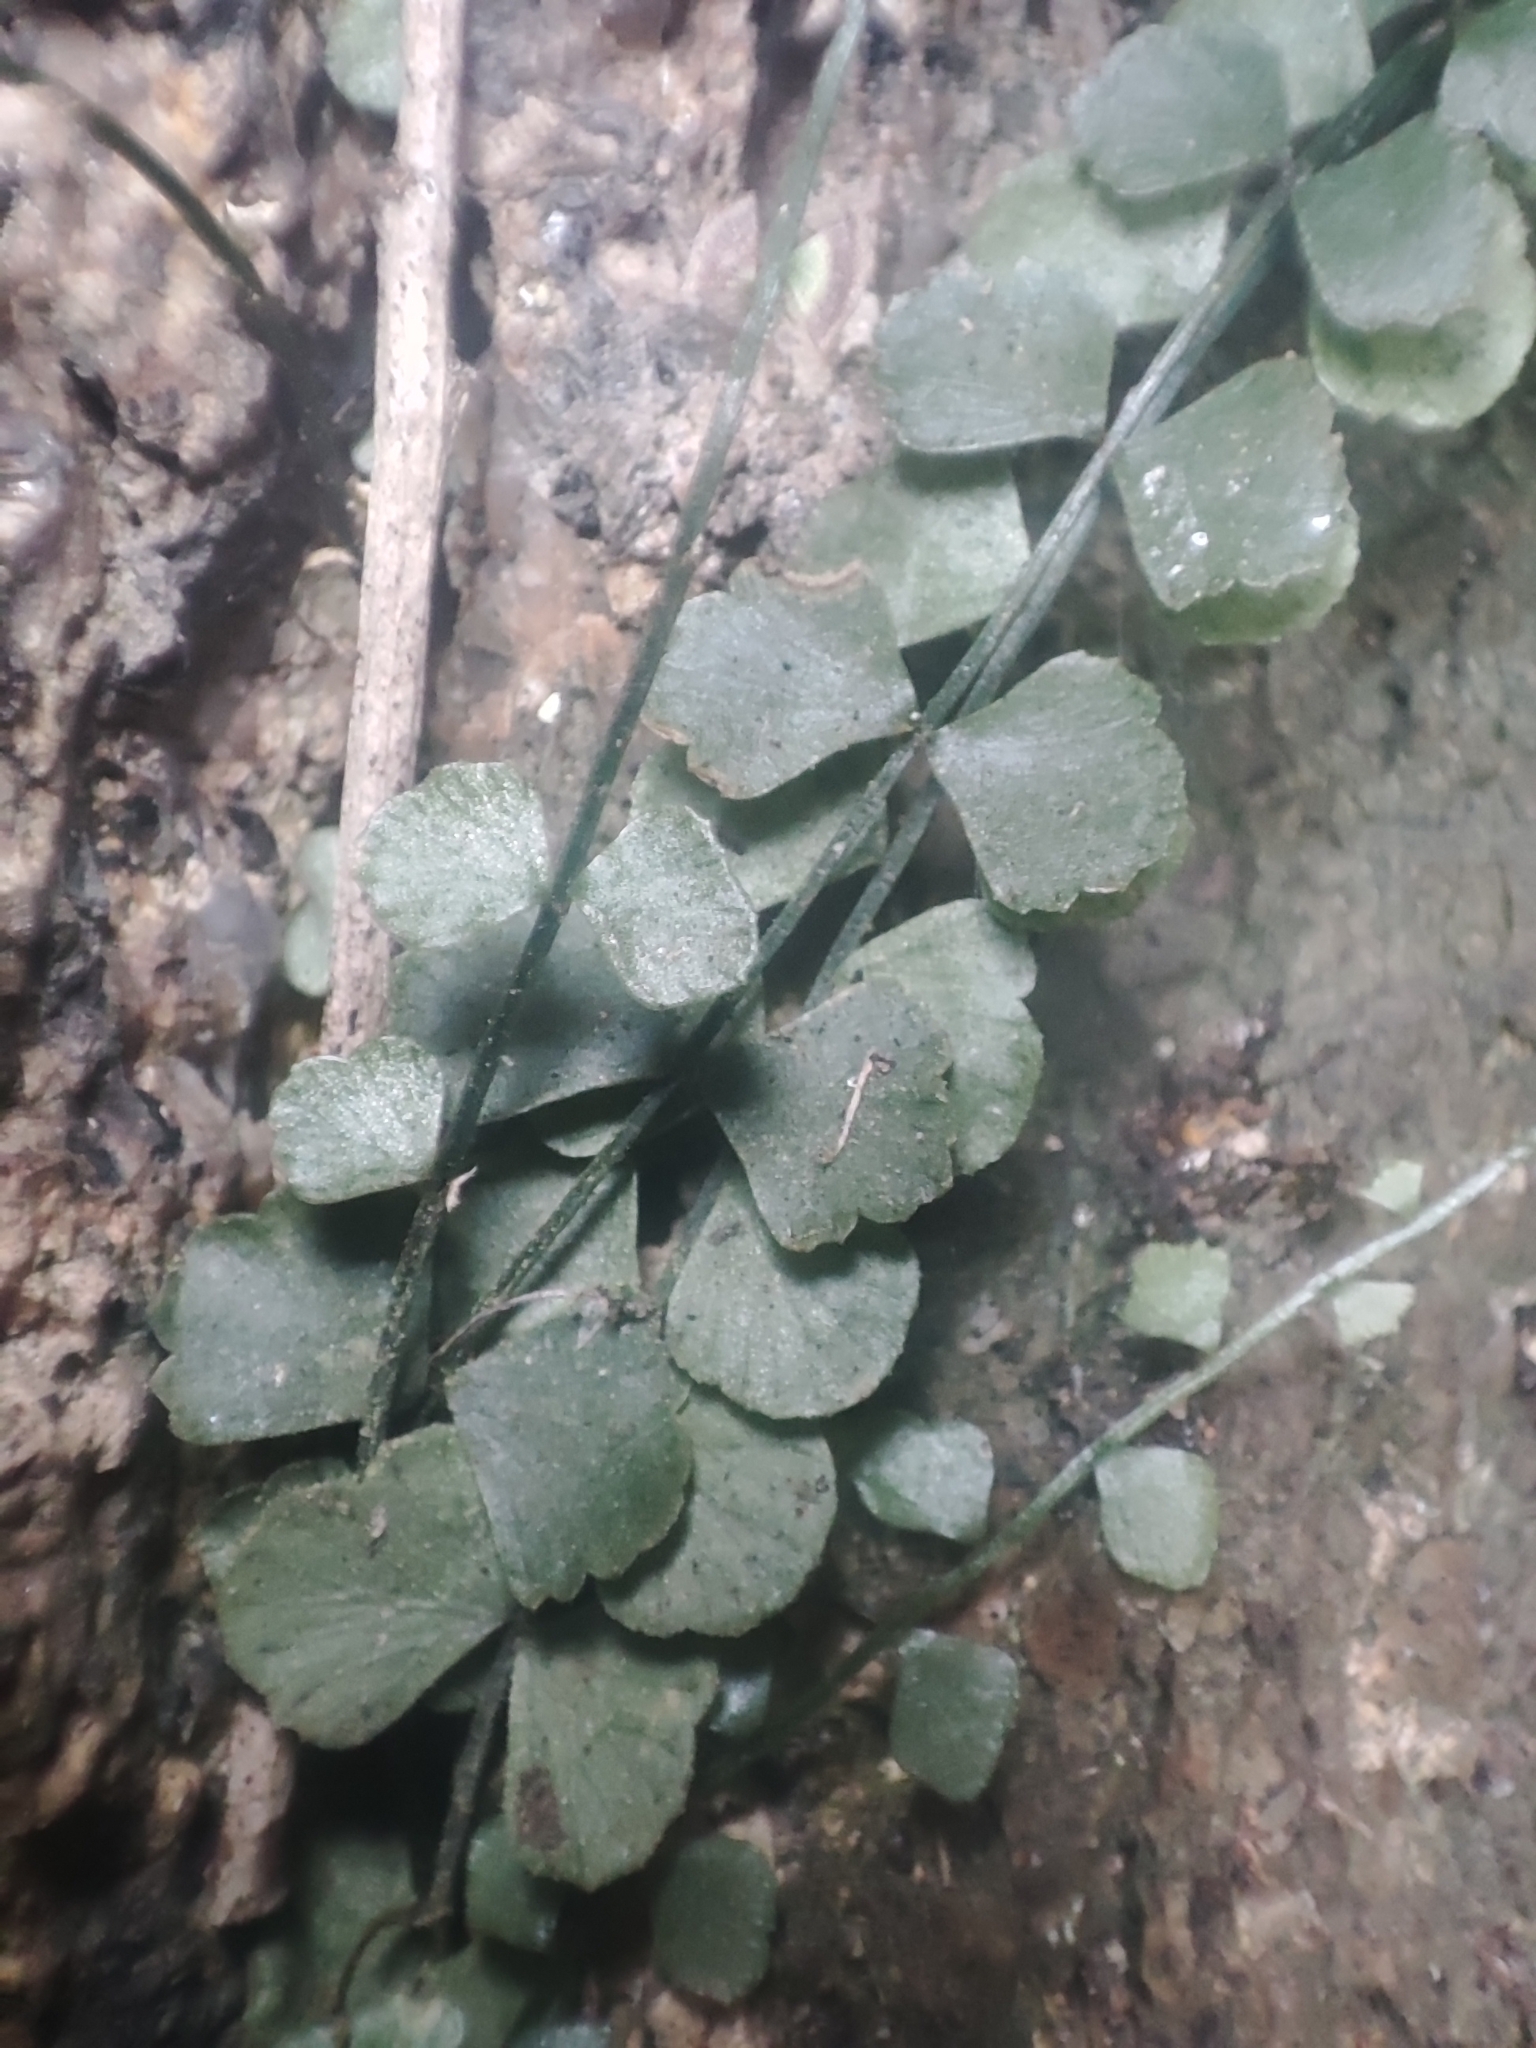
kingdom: Plantae
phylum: Tracheophyta
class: Polypodiopsida
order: Polypodiales
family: Aspleniaceae
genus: Asplenium
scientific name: Asplenium flabellifolium
